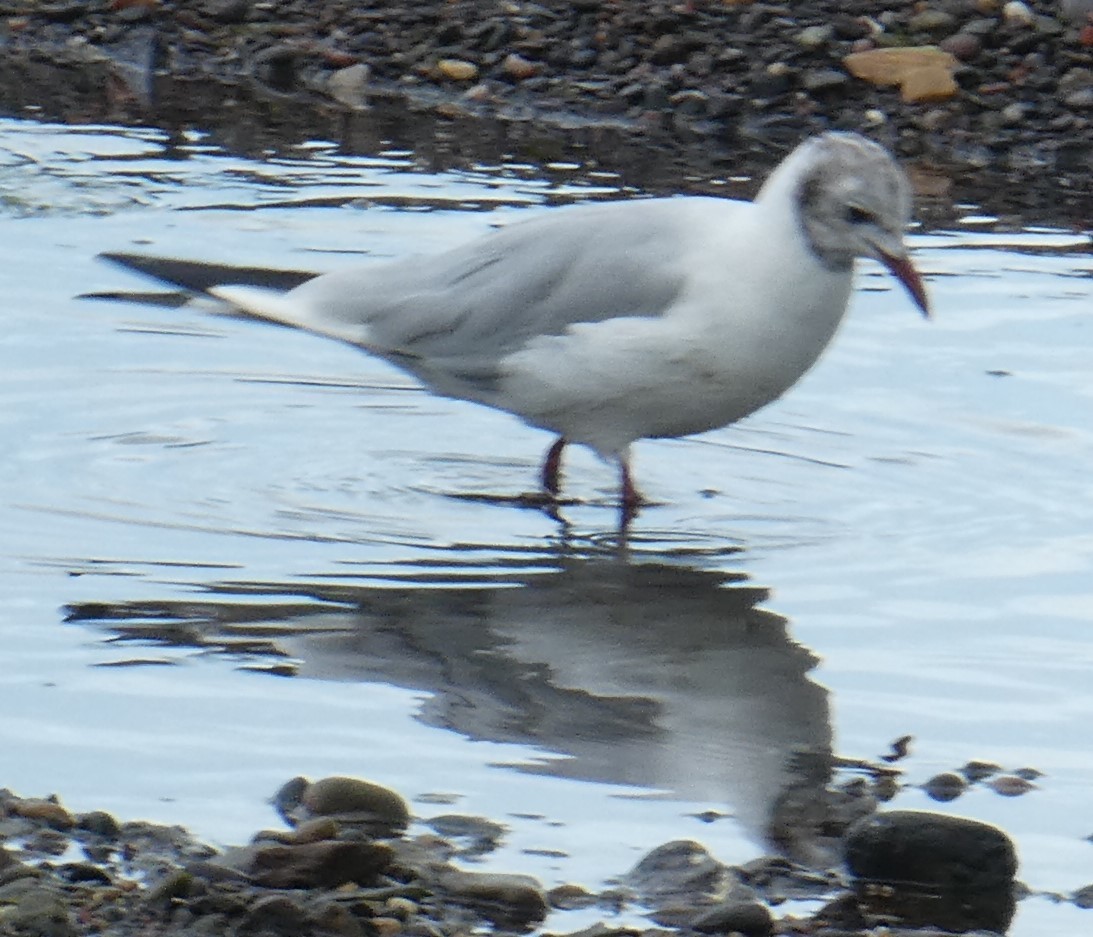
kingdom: Animalia
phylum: Chordata
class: Aves
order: Charadriiformes
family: Laridae
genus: Chroicocephalus
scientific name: Chroicocephalus ridibundus
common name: Black-headed gull
